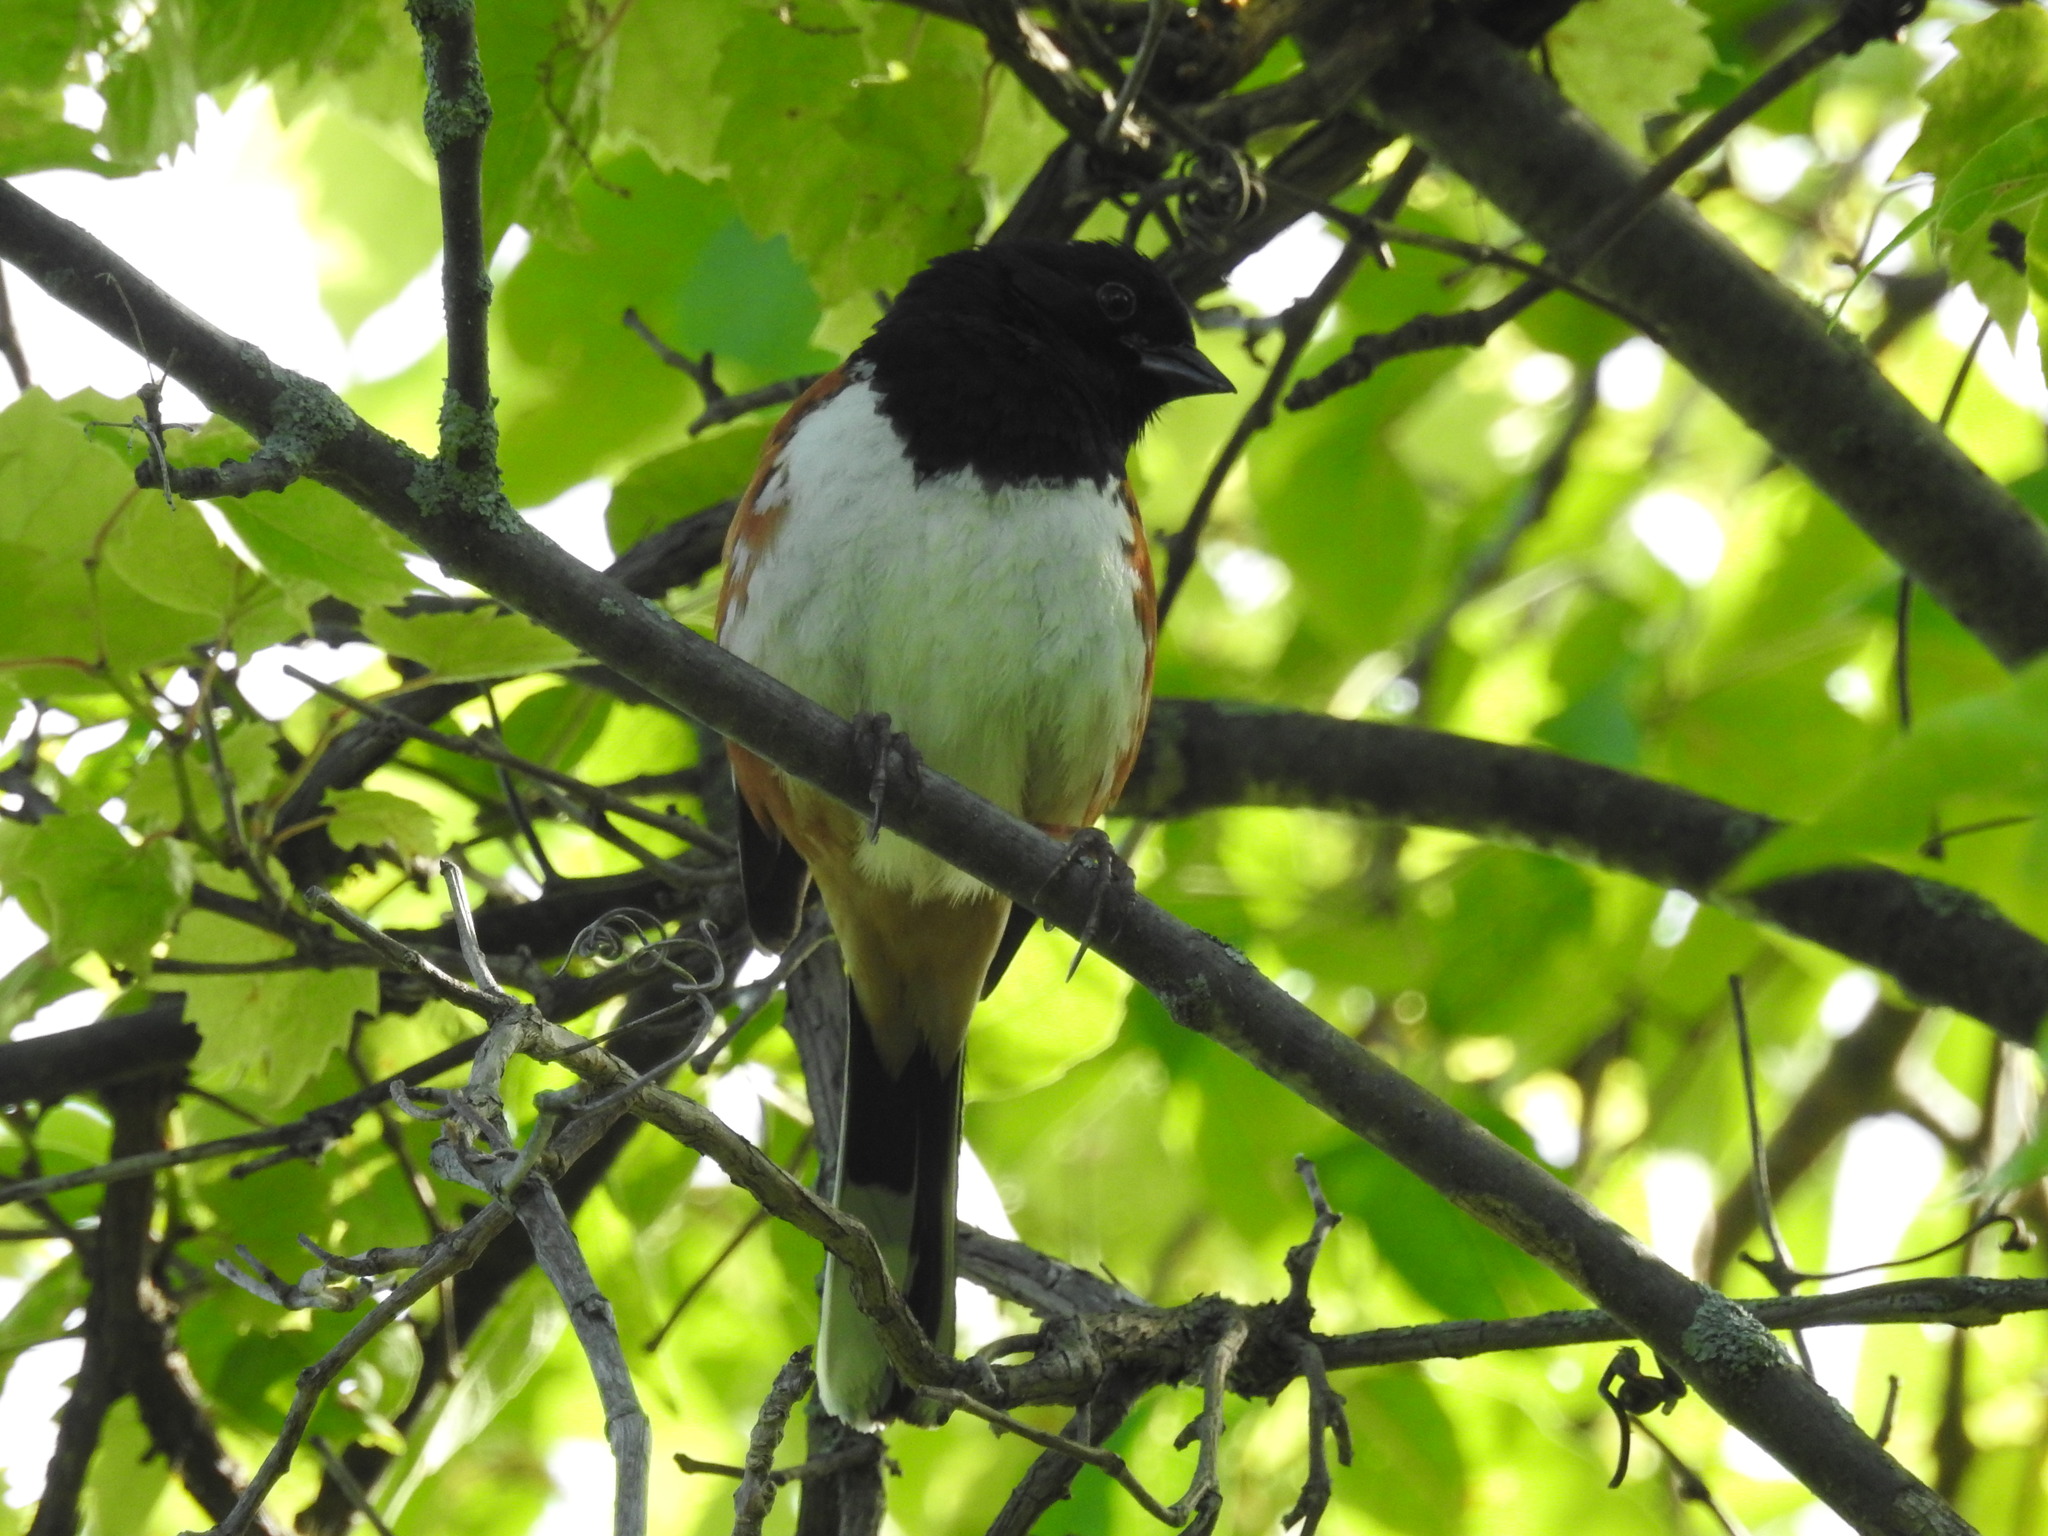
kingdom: Animalia
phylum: Chordata
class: Aves
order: Passeriformes
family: Passerellidae
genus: Pipilo
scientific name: Pipilo erythrophthalmus
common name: Eastern towhee
